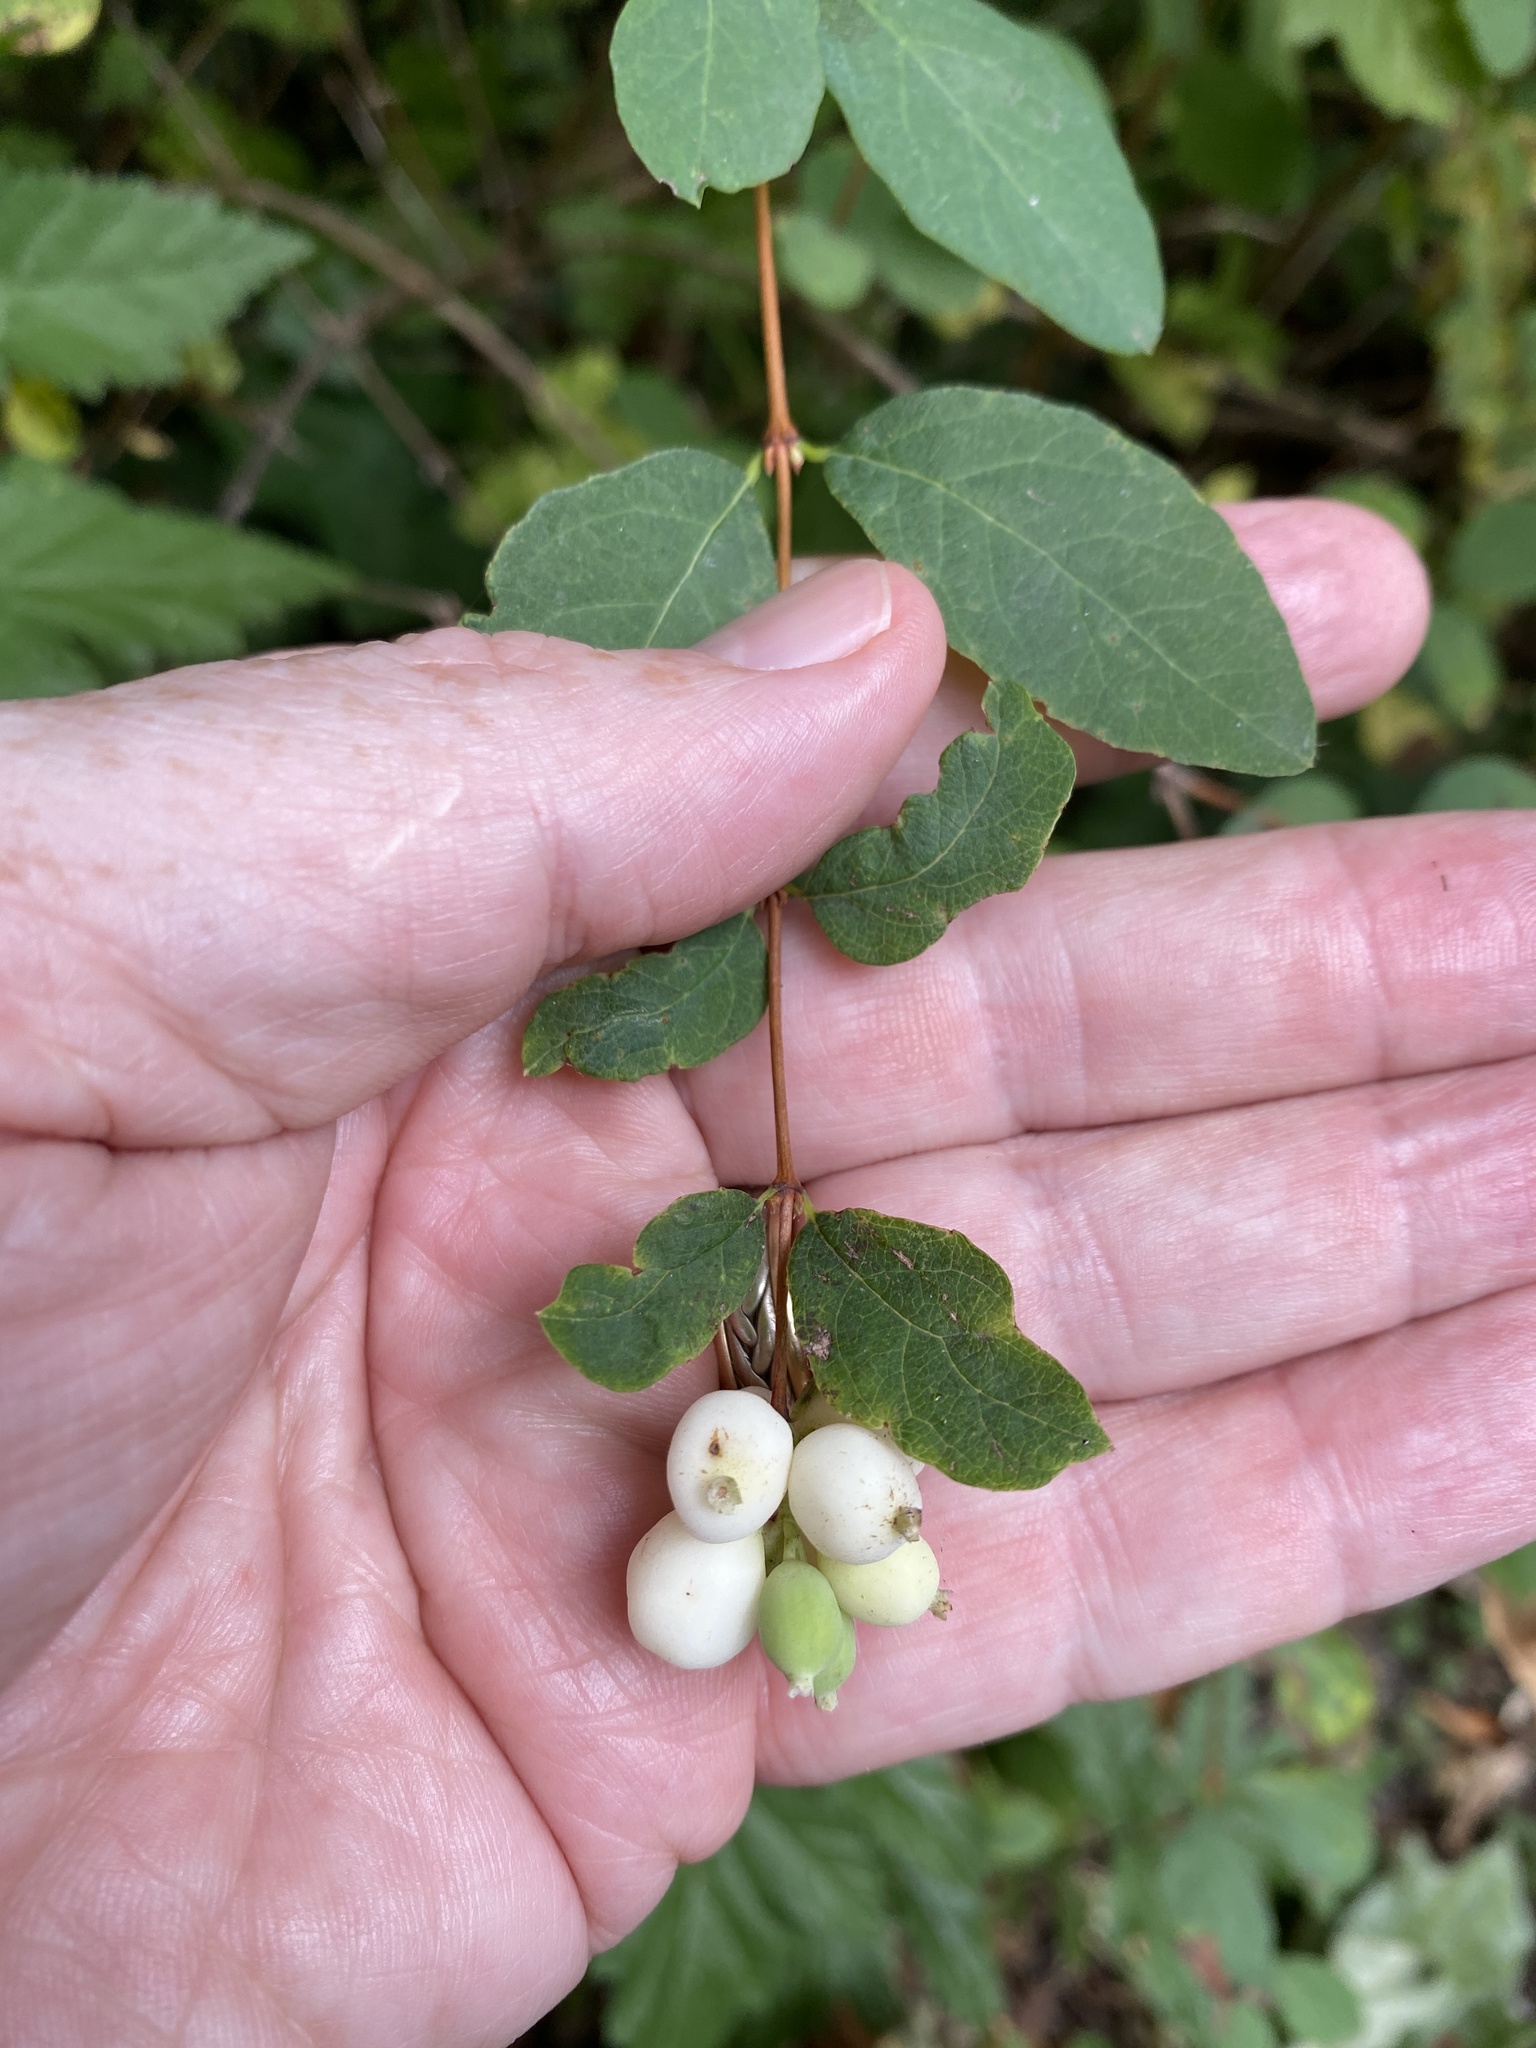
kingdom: Plantae
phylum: Tracheophyta
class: Magnoliopsida
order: Dipsacales
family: Caprifoliaceae
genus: Symphoricarpos
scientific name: Symphoricarpos albus
